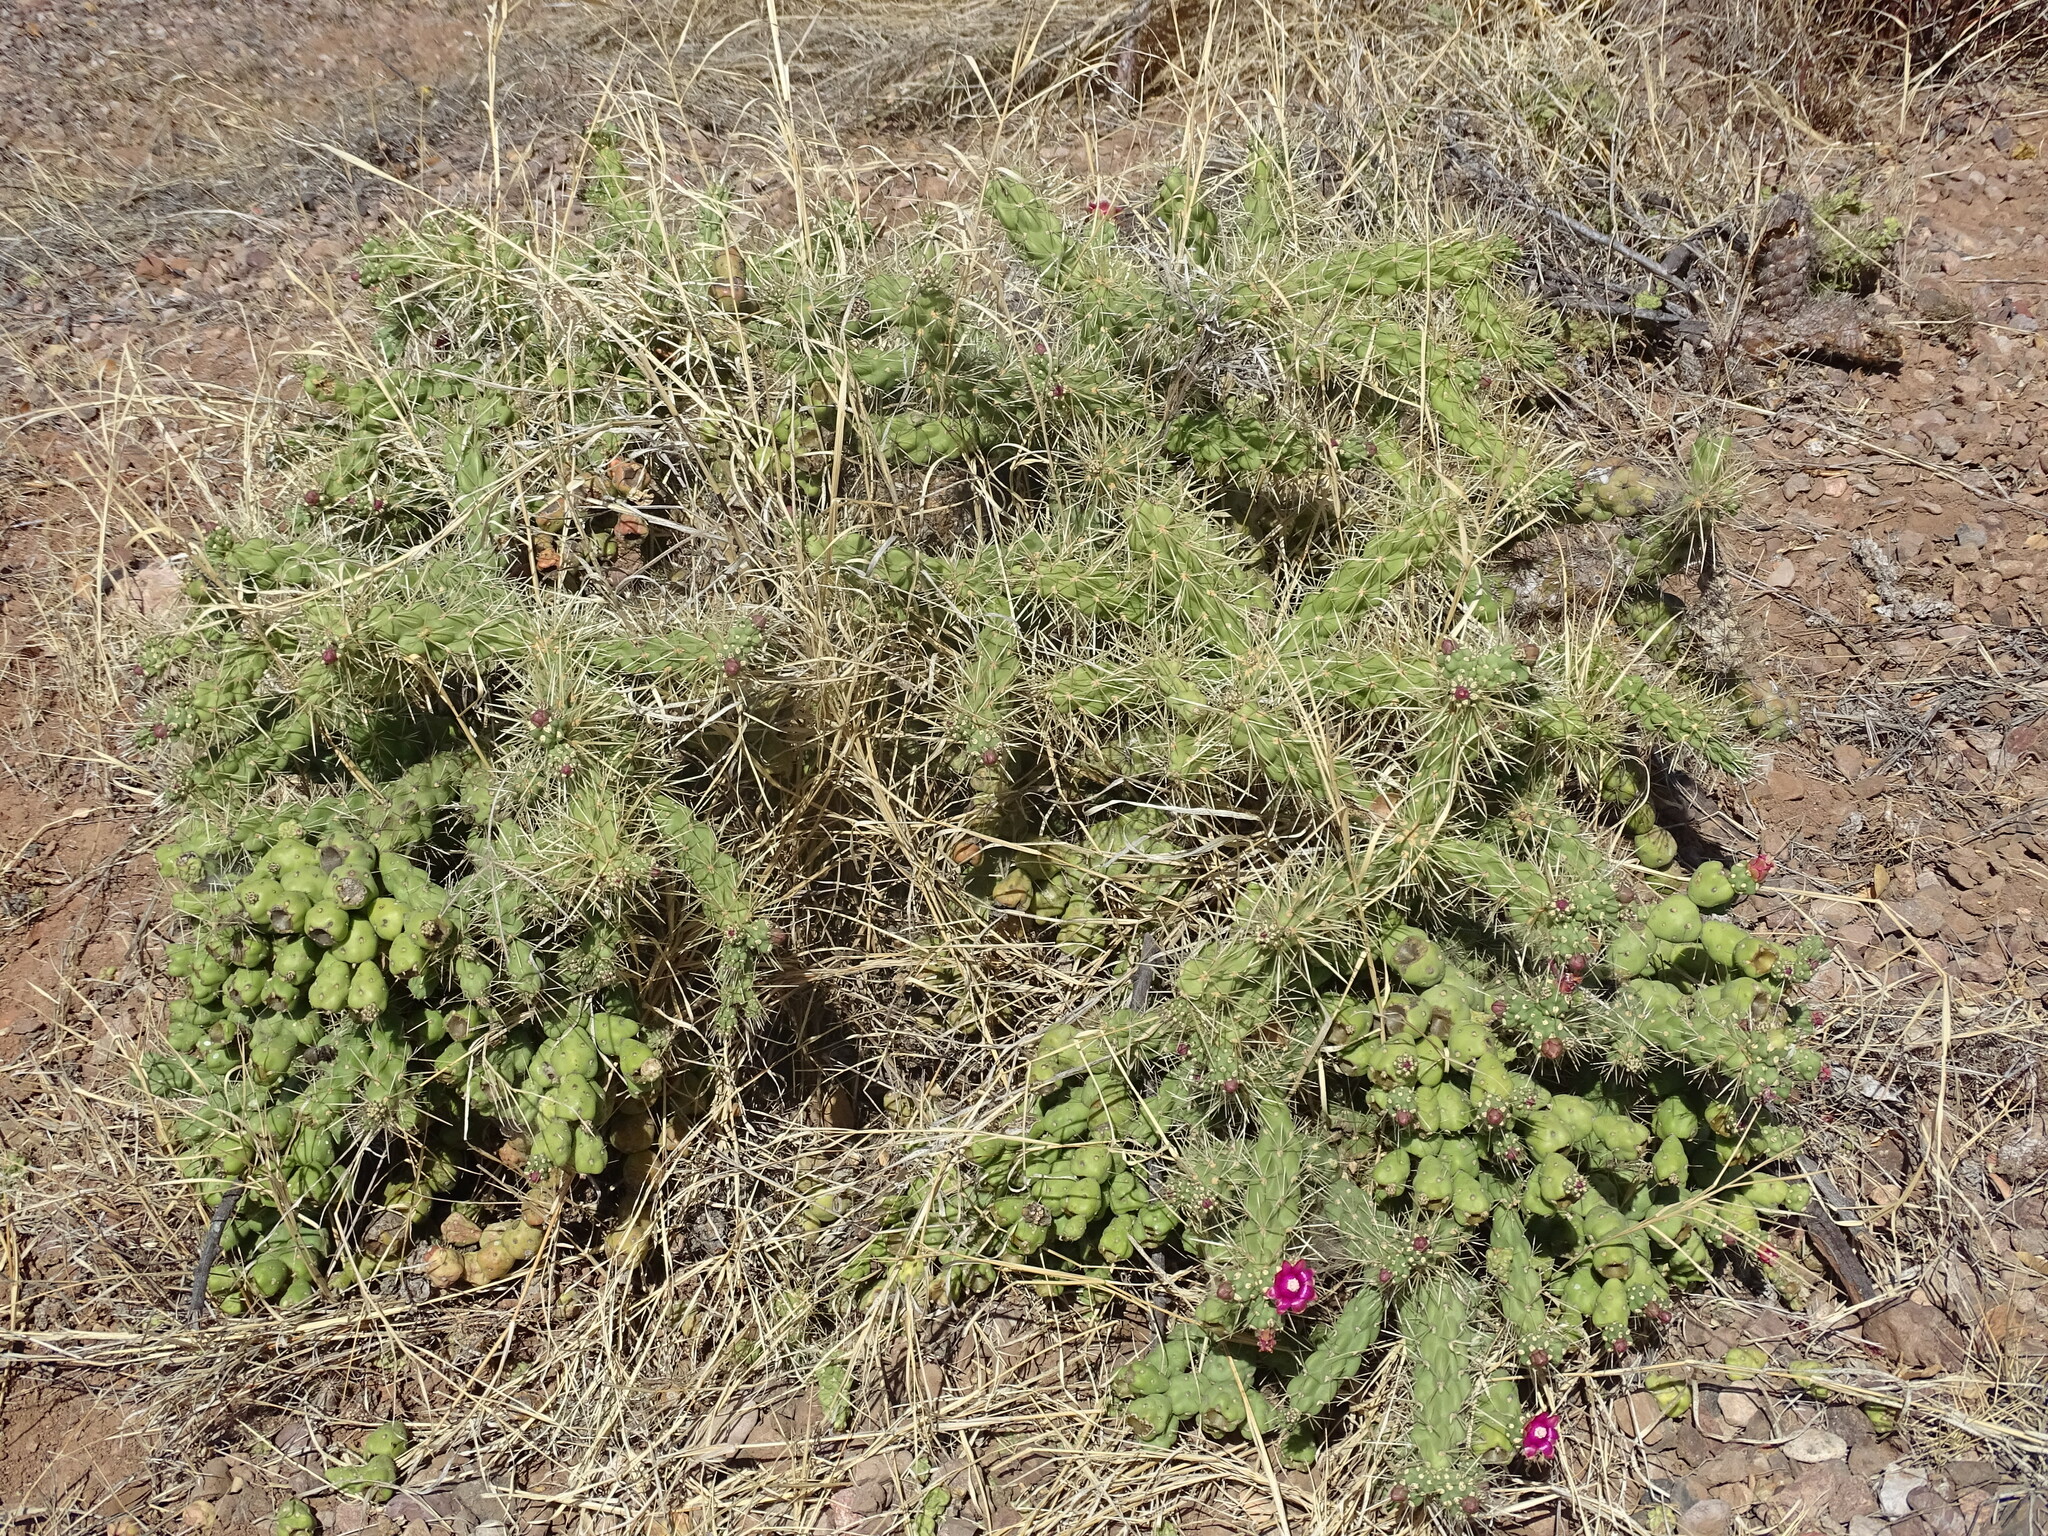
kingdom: Plantae
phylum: Tracheophyta
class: Magnoliopsida
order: Caryophyllales
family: Cactaceae
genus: Cylindropuntia
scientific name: Cylindropuntia fulgida
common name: Jumping cholla
